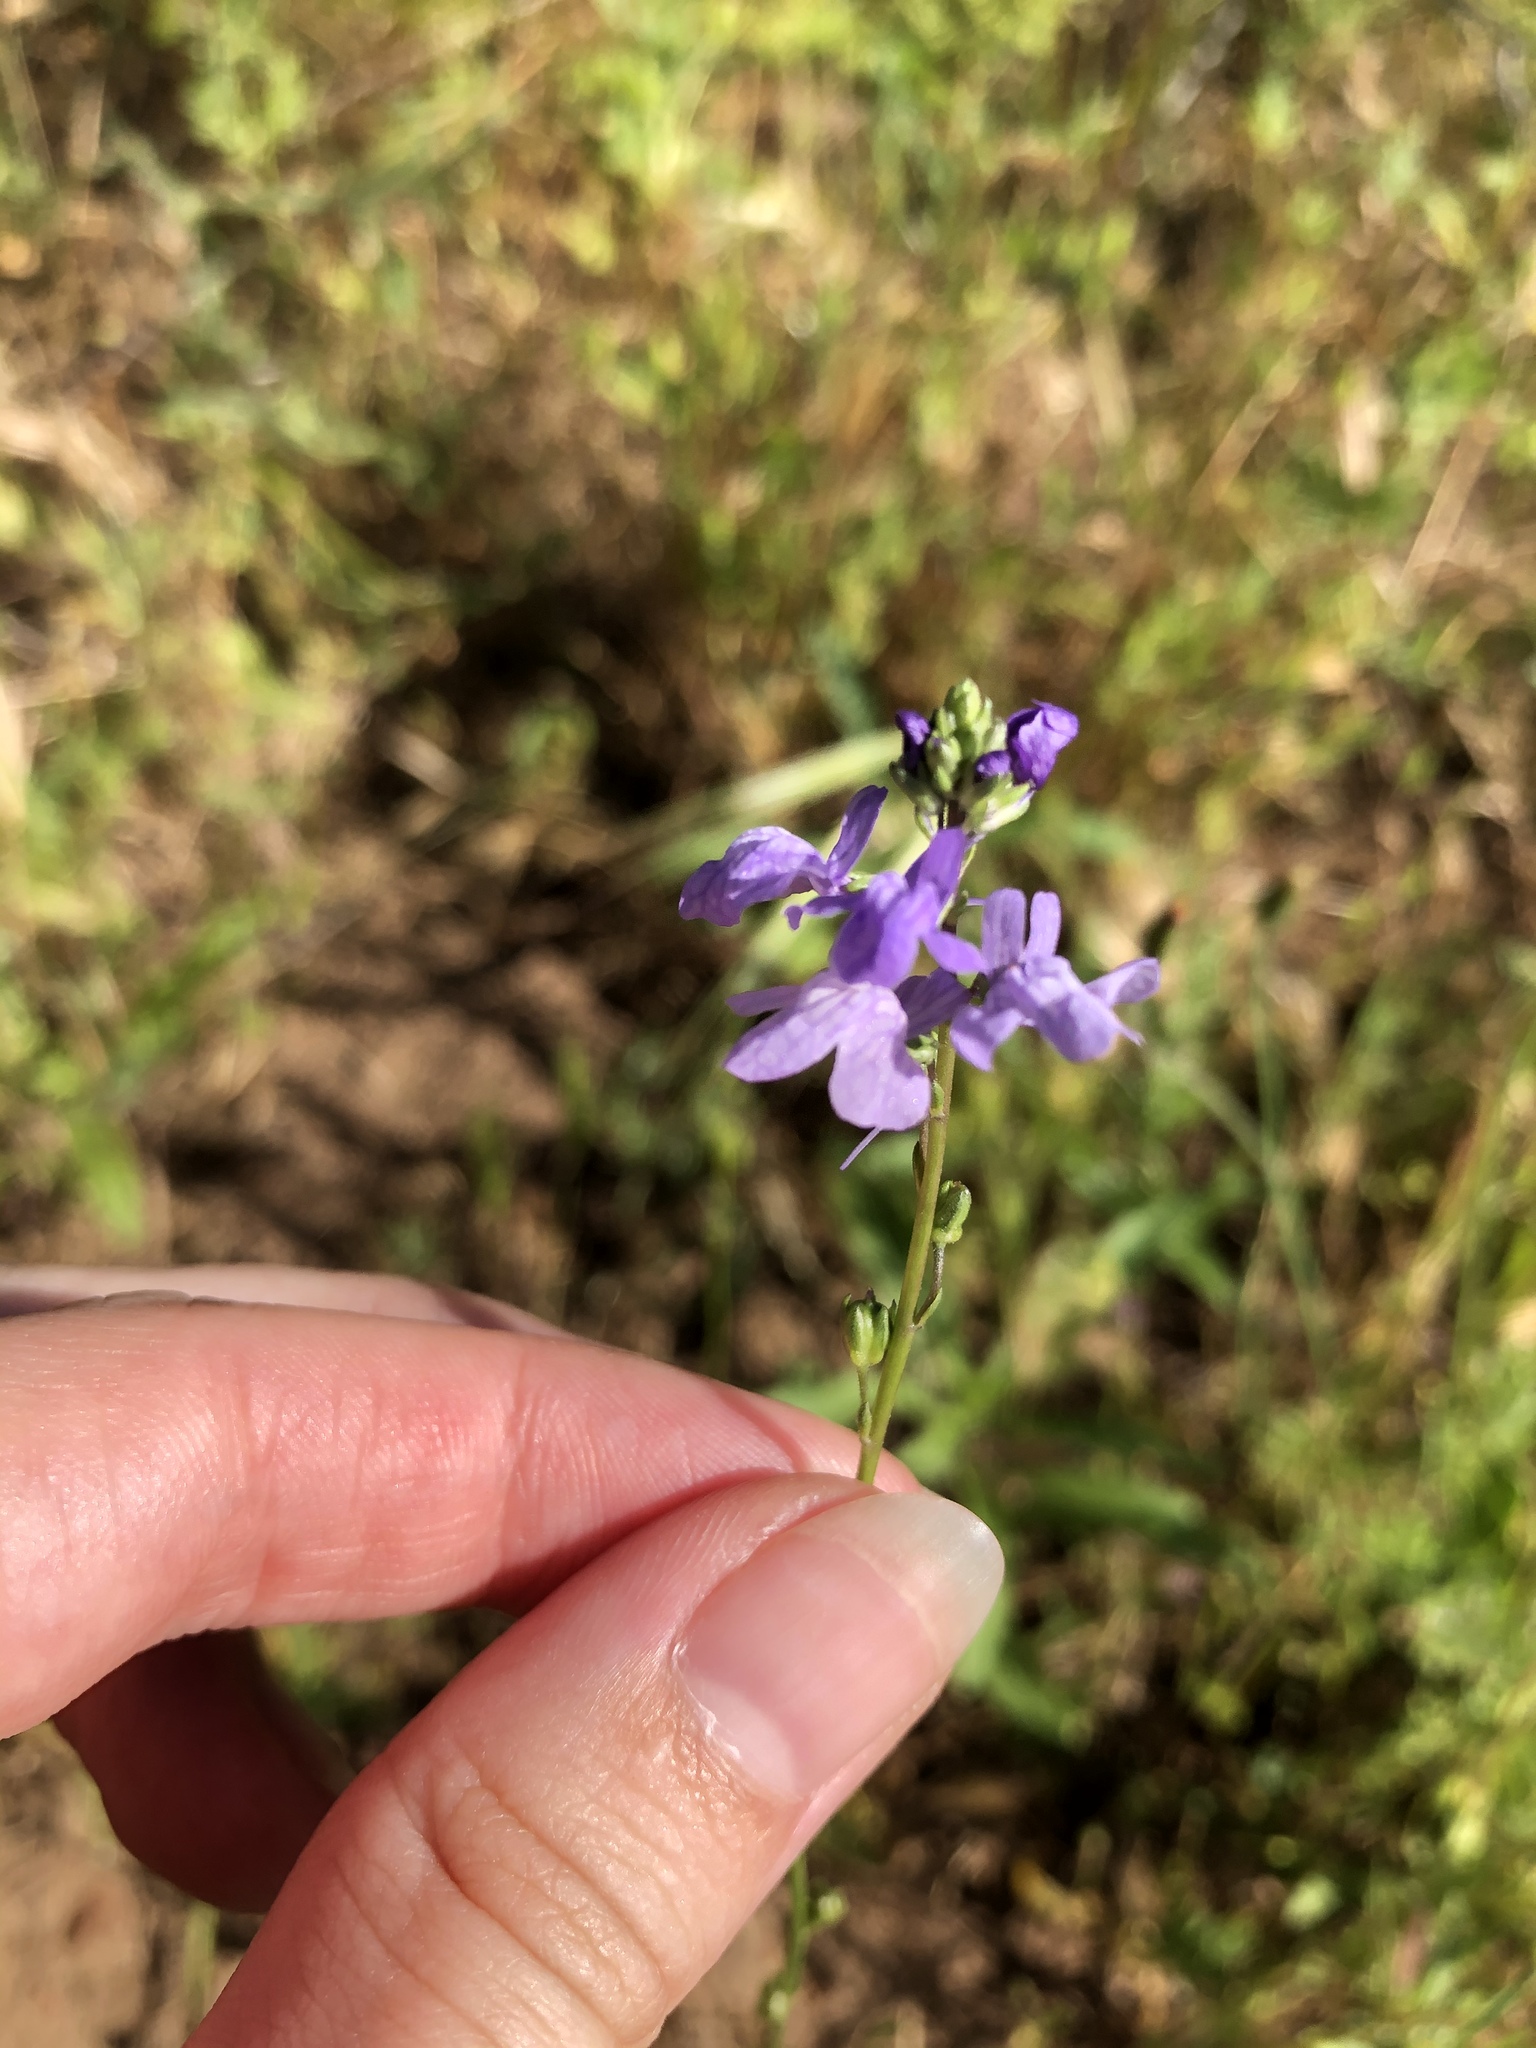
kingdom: Plantae
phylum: Tracheophyta
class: Magnoliopsida
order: Lamiales
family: Plantaginaceae
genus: Nuttallanthus
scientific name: Nuttallanthus texanus
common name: Texas toadflax
